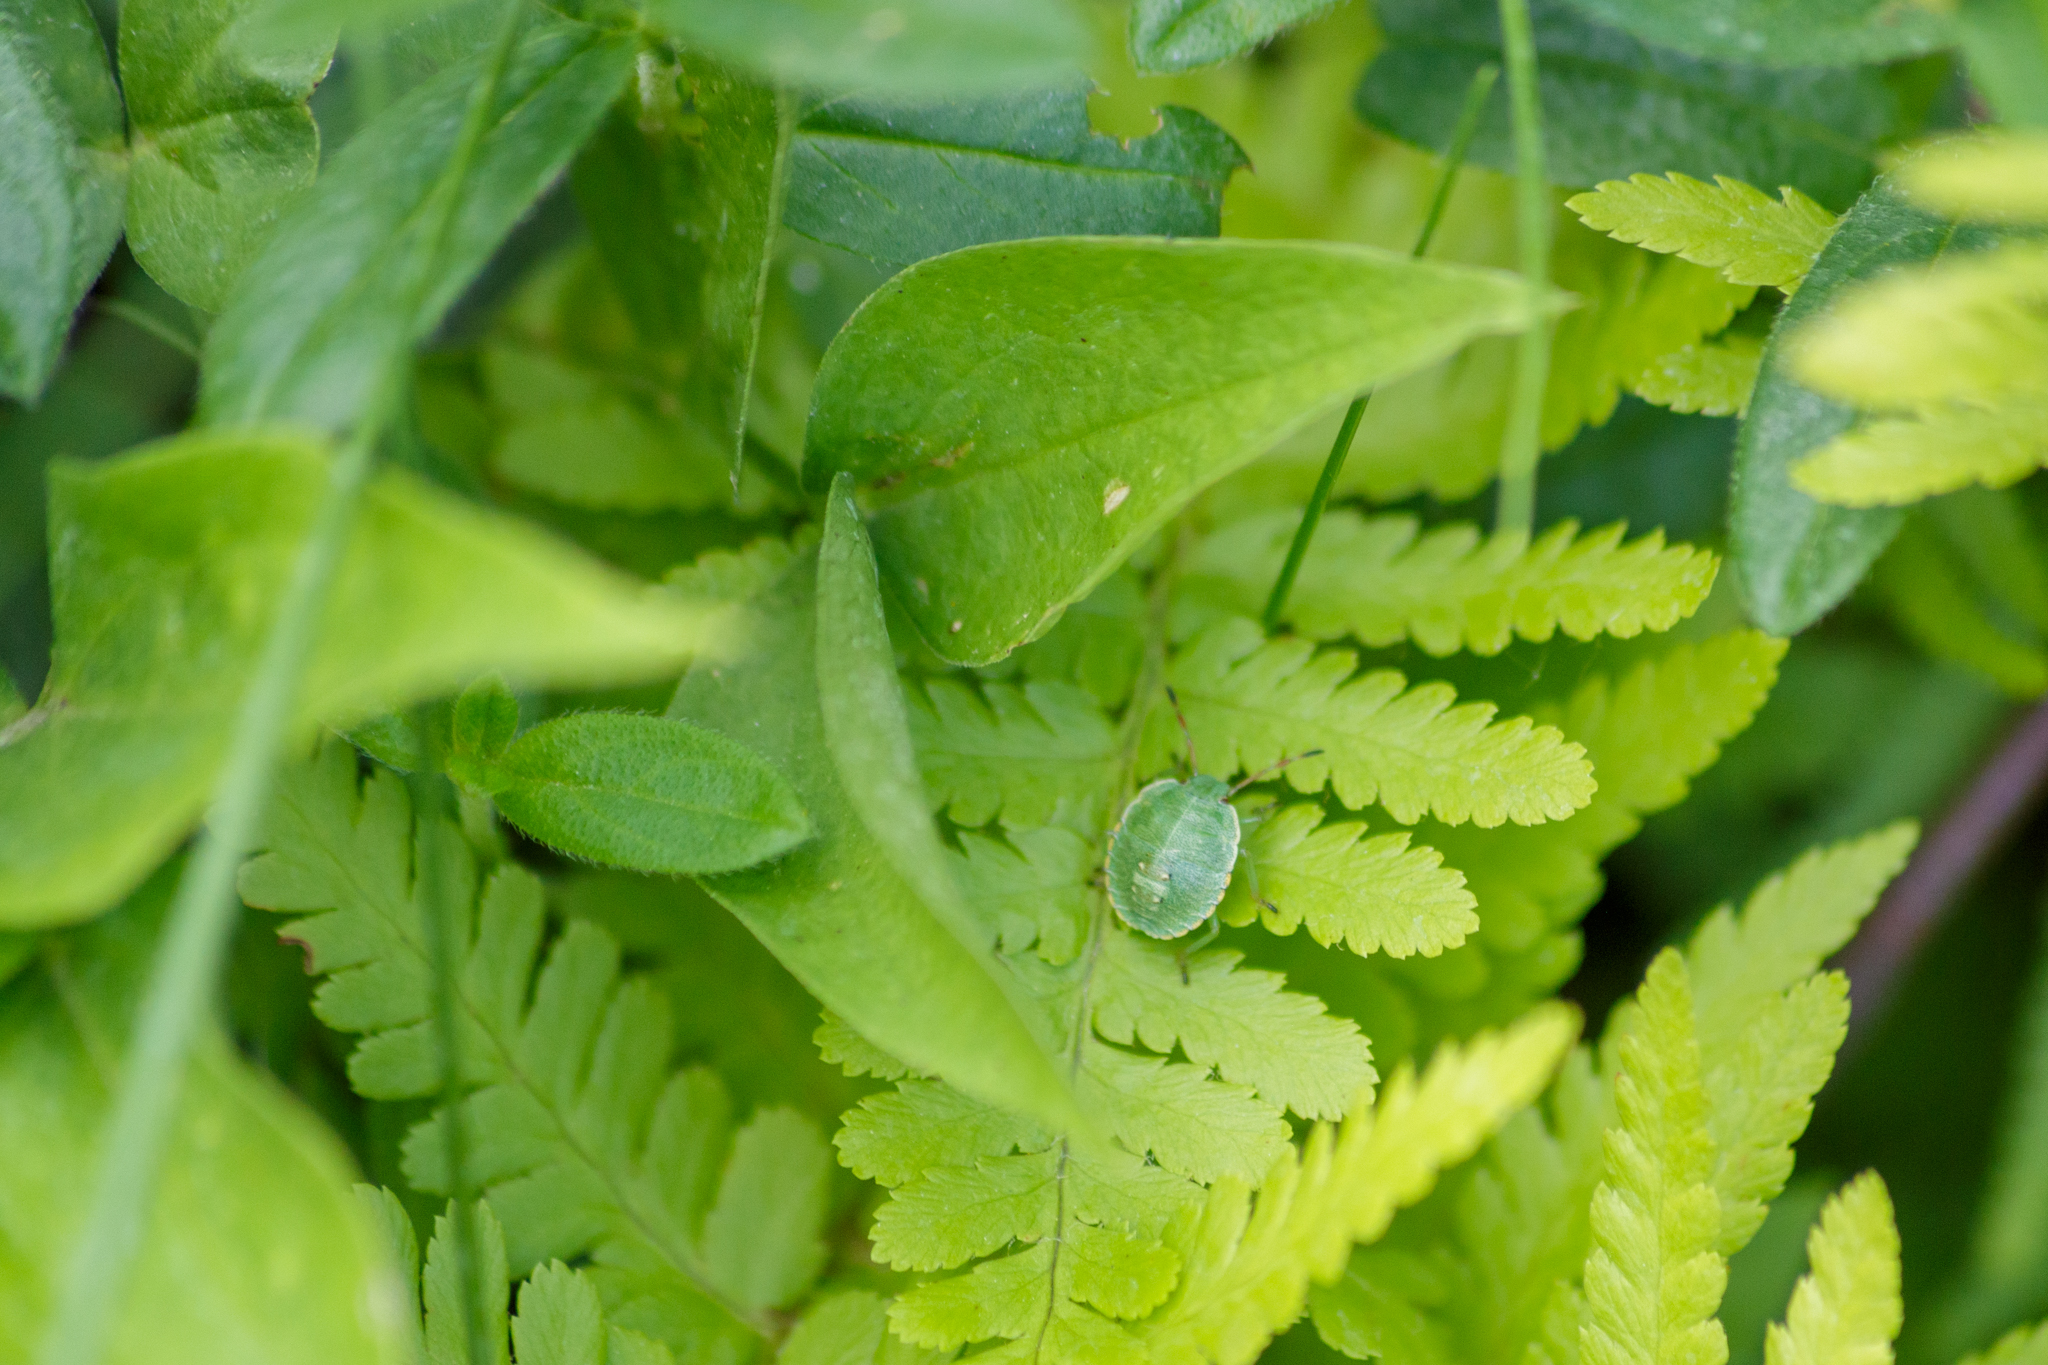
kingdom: Animalia
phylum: Arthropoda
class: Insecta
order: Hemiptera
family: Pentatomidae
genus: Palomena
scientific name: Palomena prasina
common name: Green shieldbug
